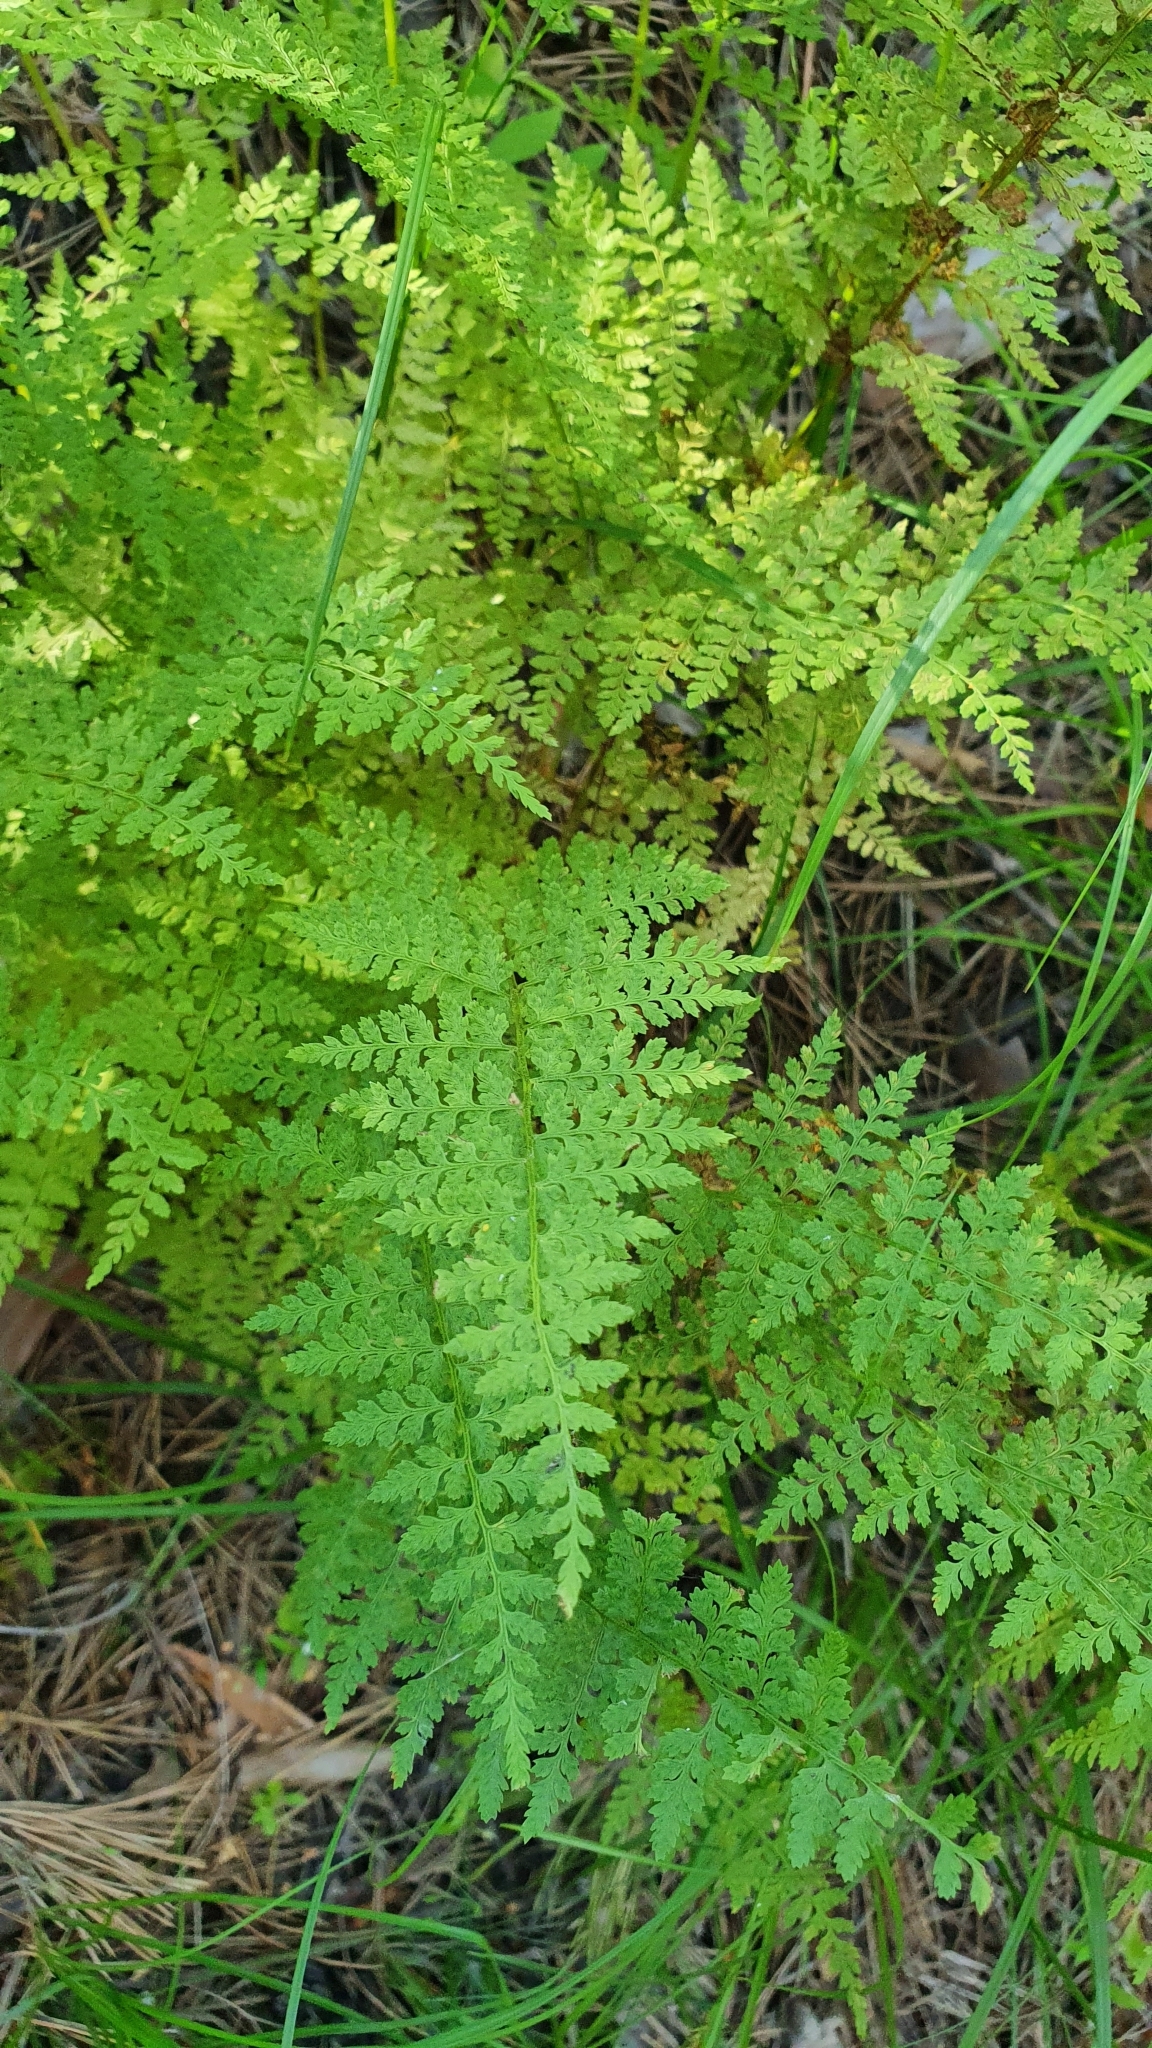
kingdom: Plantae
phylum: Tracheophyta
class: Polypodiopsida
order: Polypodiales
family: Cystopteridaceae
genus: Cystopteris
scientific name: Cystopteris fragilis
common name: Brittle bladder fern
